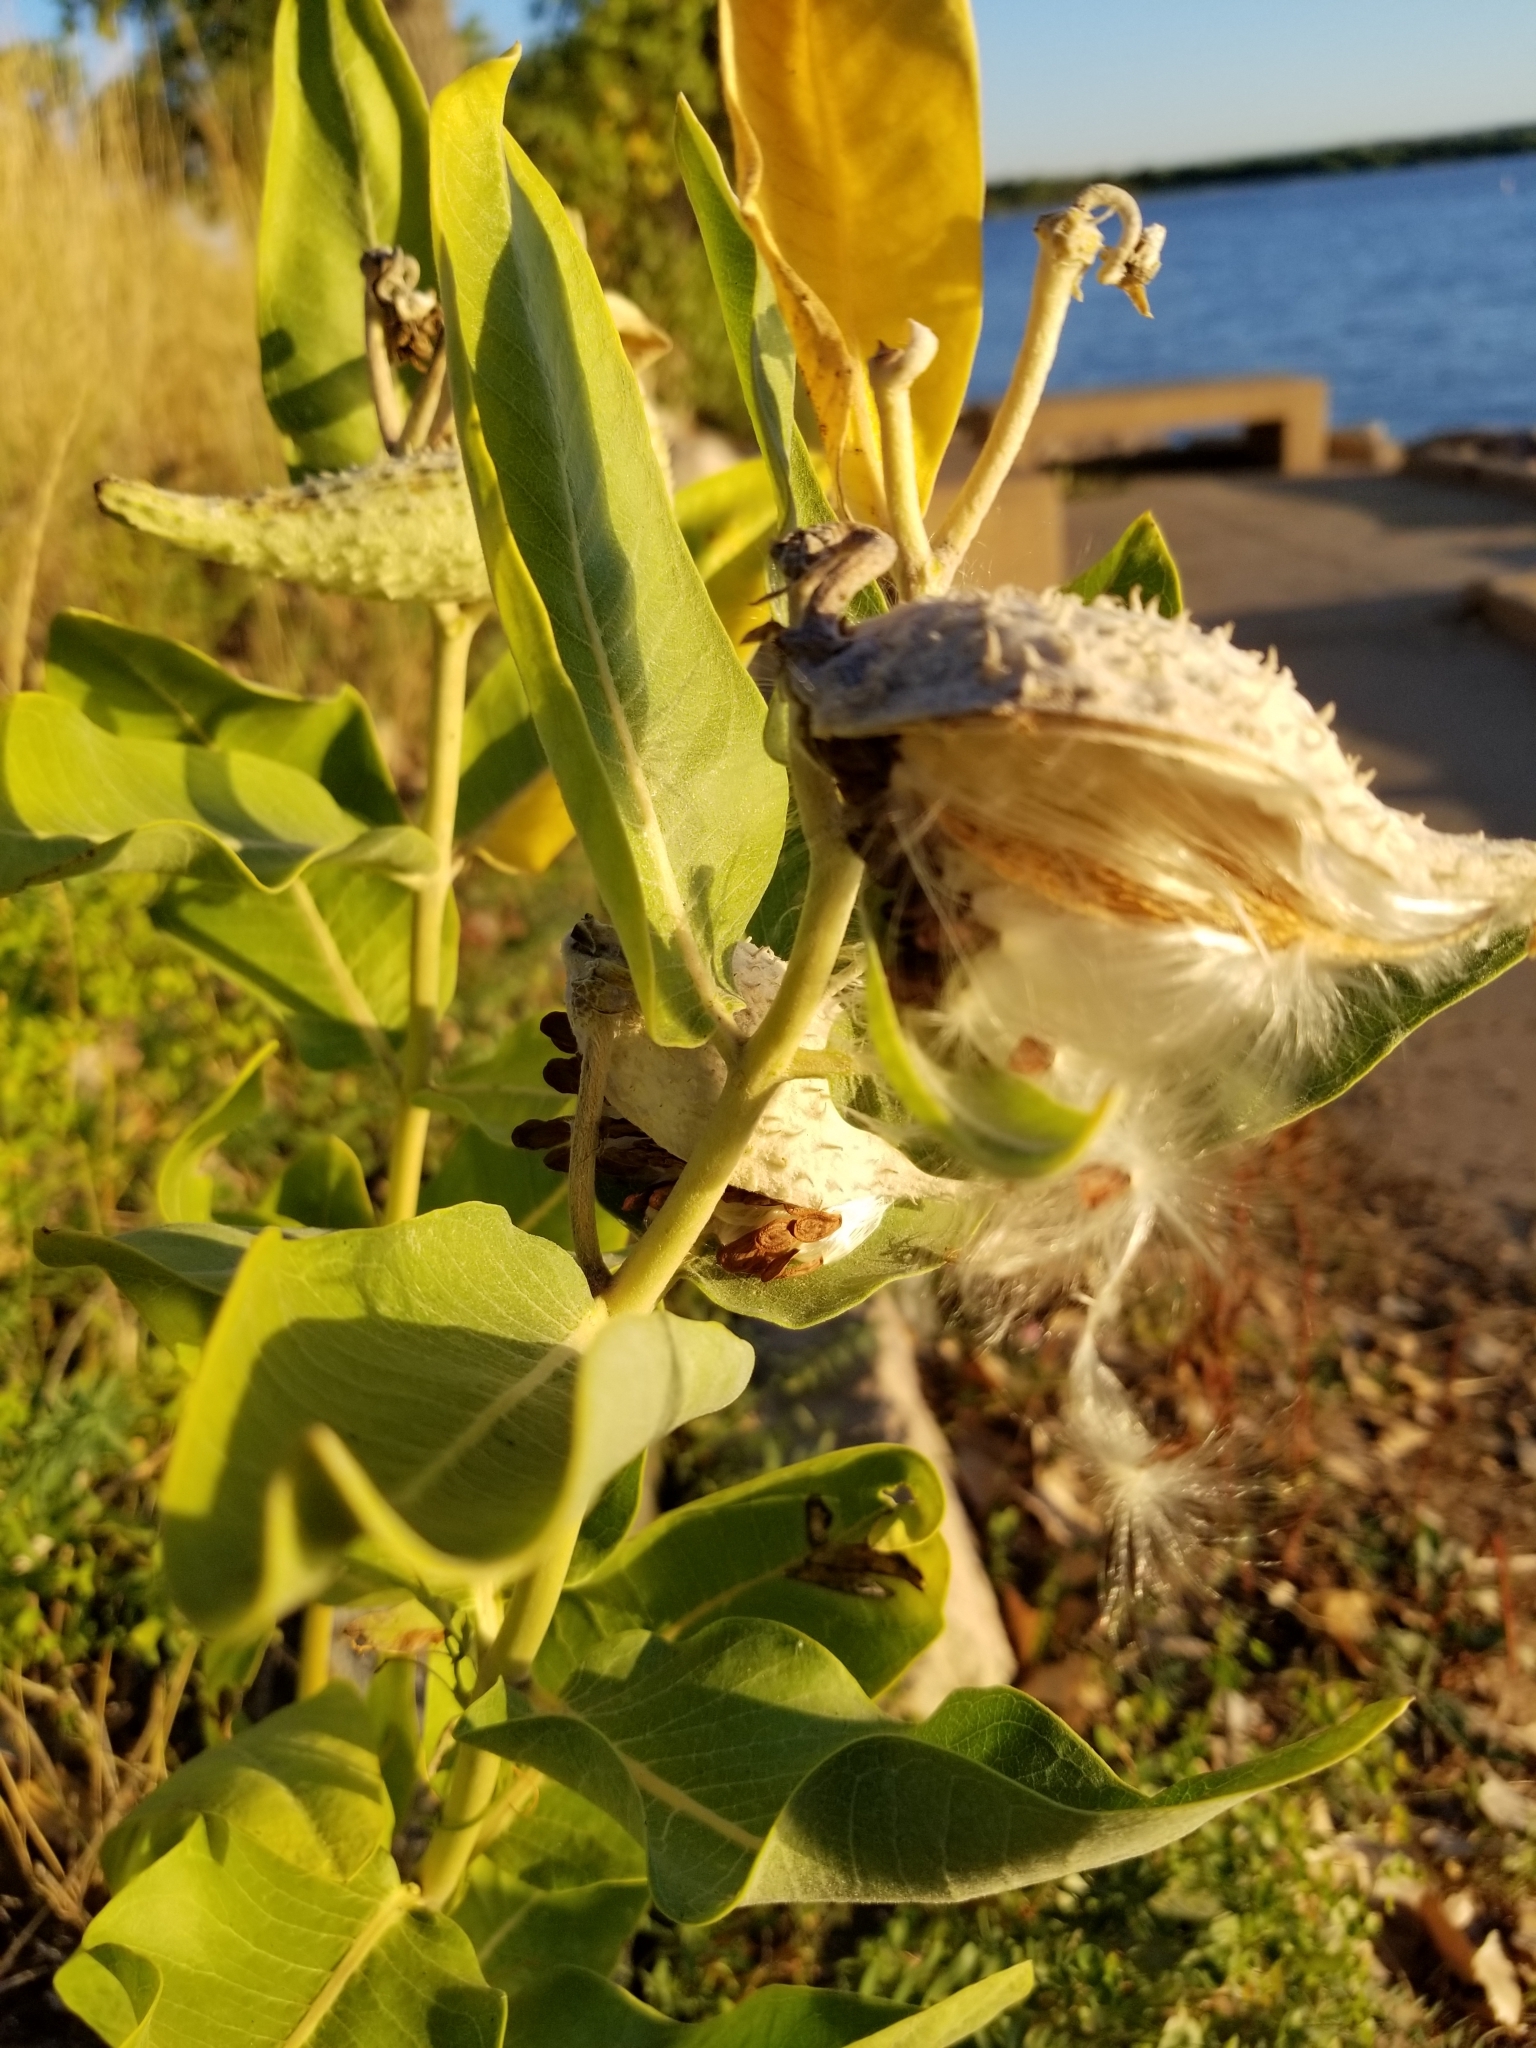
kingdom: Plantae
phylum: Tracheophyta
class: Magnoliopsida
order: Gentianales
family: Apocynaceae
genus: Asclepias
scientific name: Asclepias speciosa
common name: Showy milkweed
